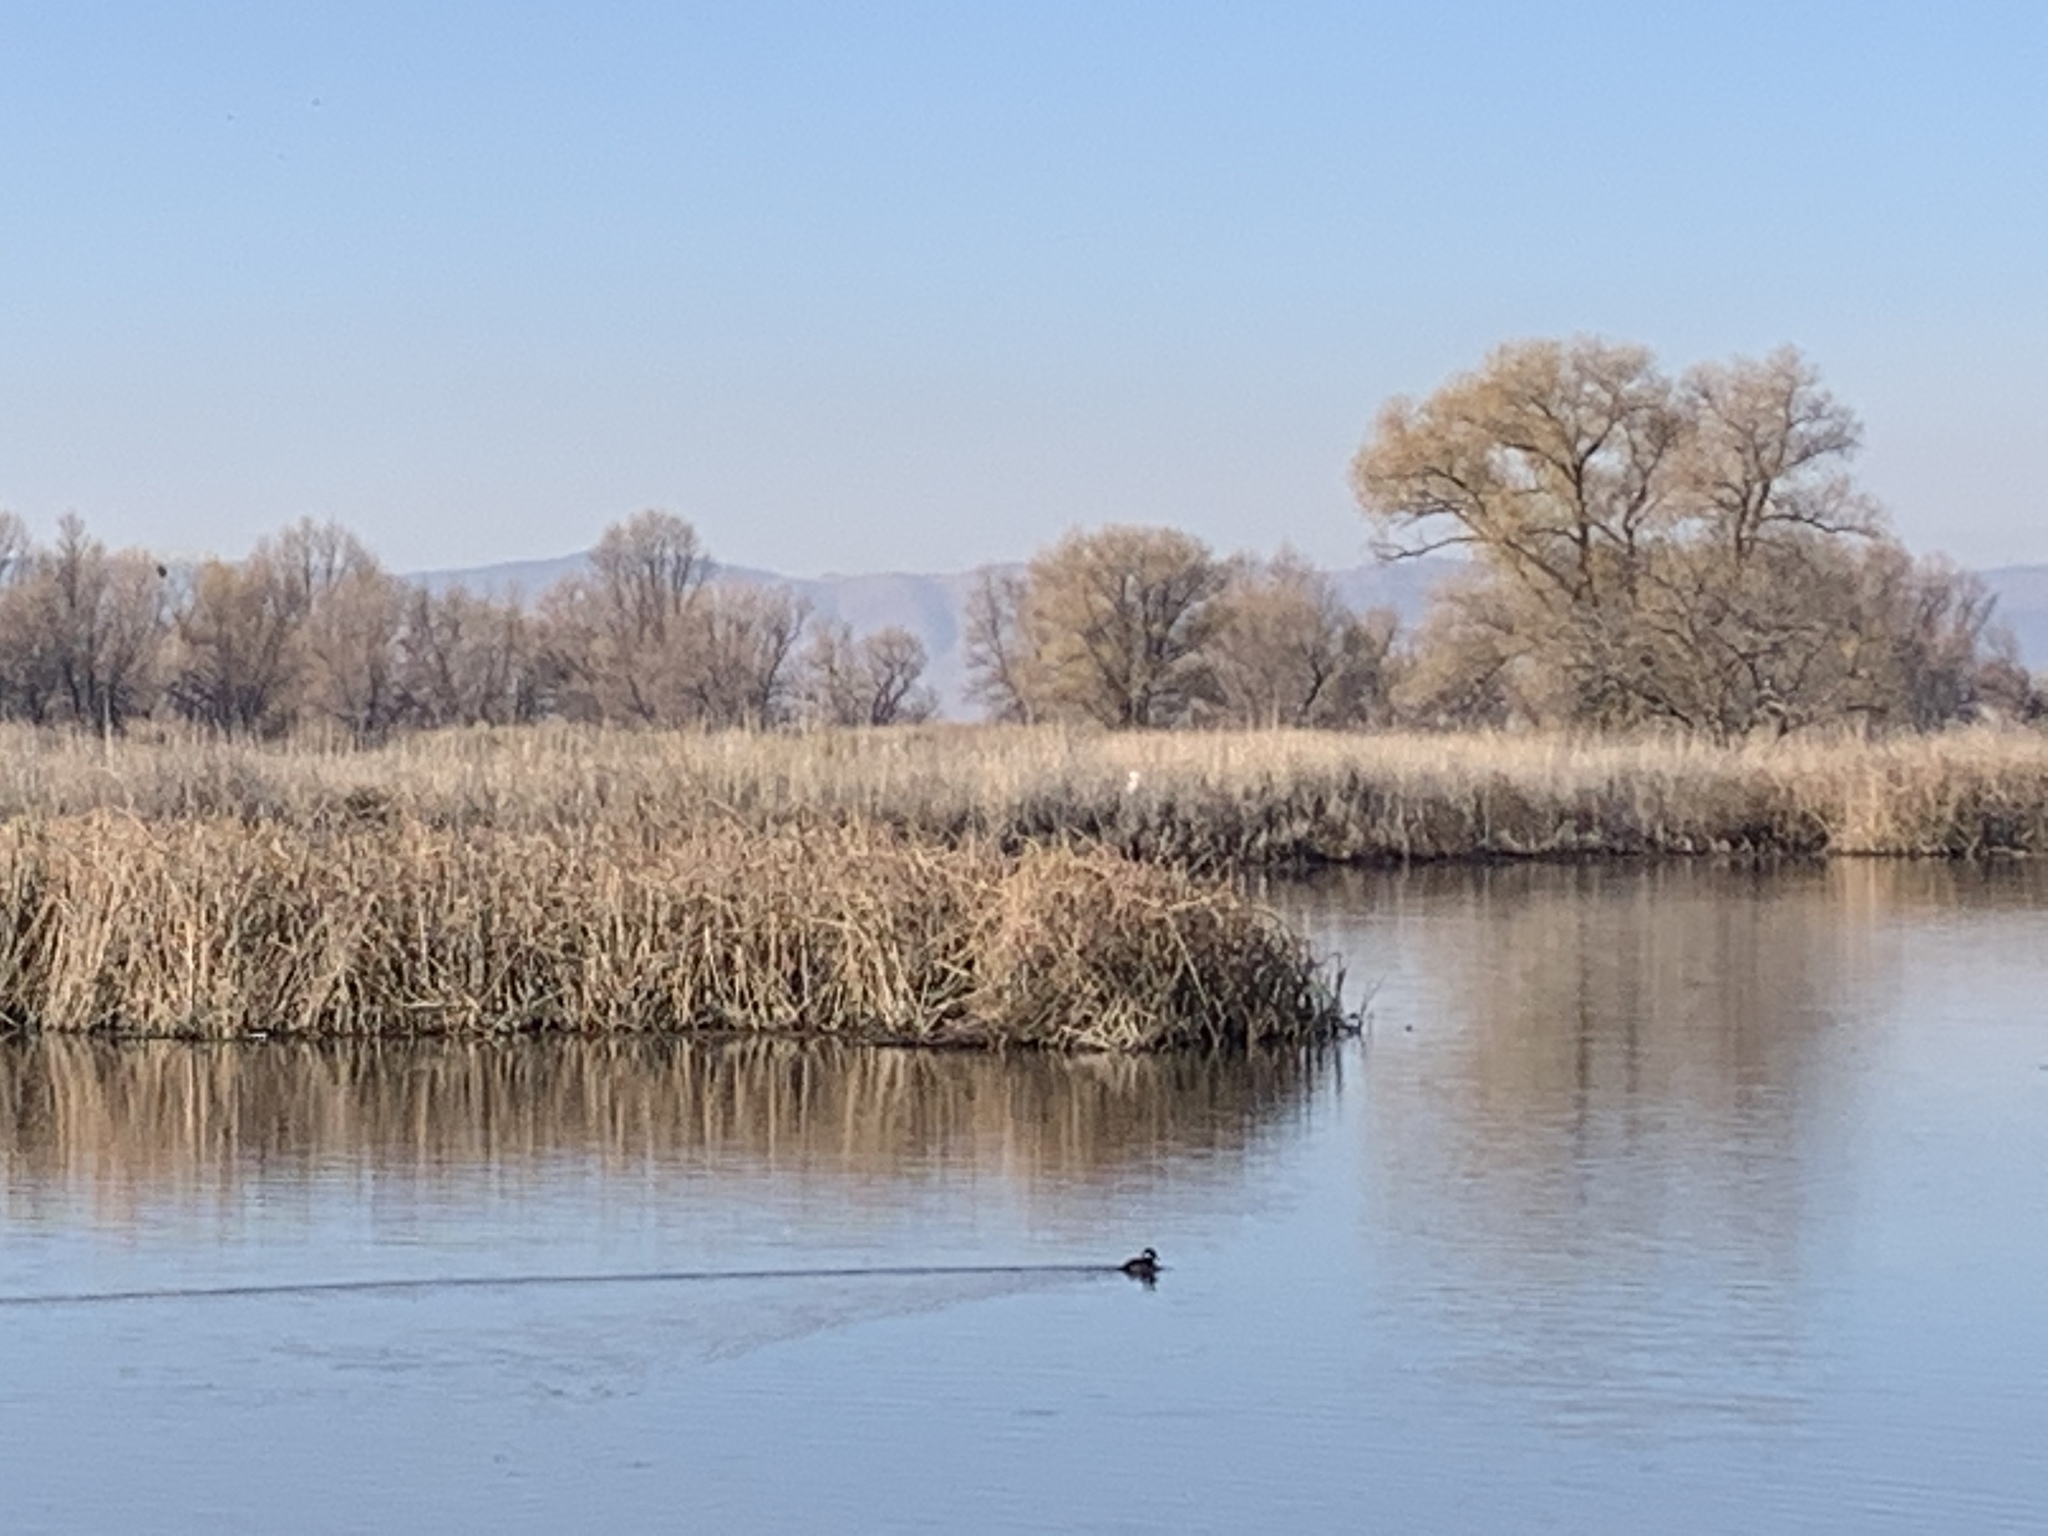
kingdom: Animalia
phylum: Chordata
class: Aves
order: Anseriformes
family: Anatidae
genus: Bucephala
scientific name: Bucephala albeola
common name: Bufflehead
